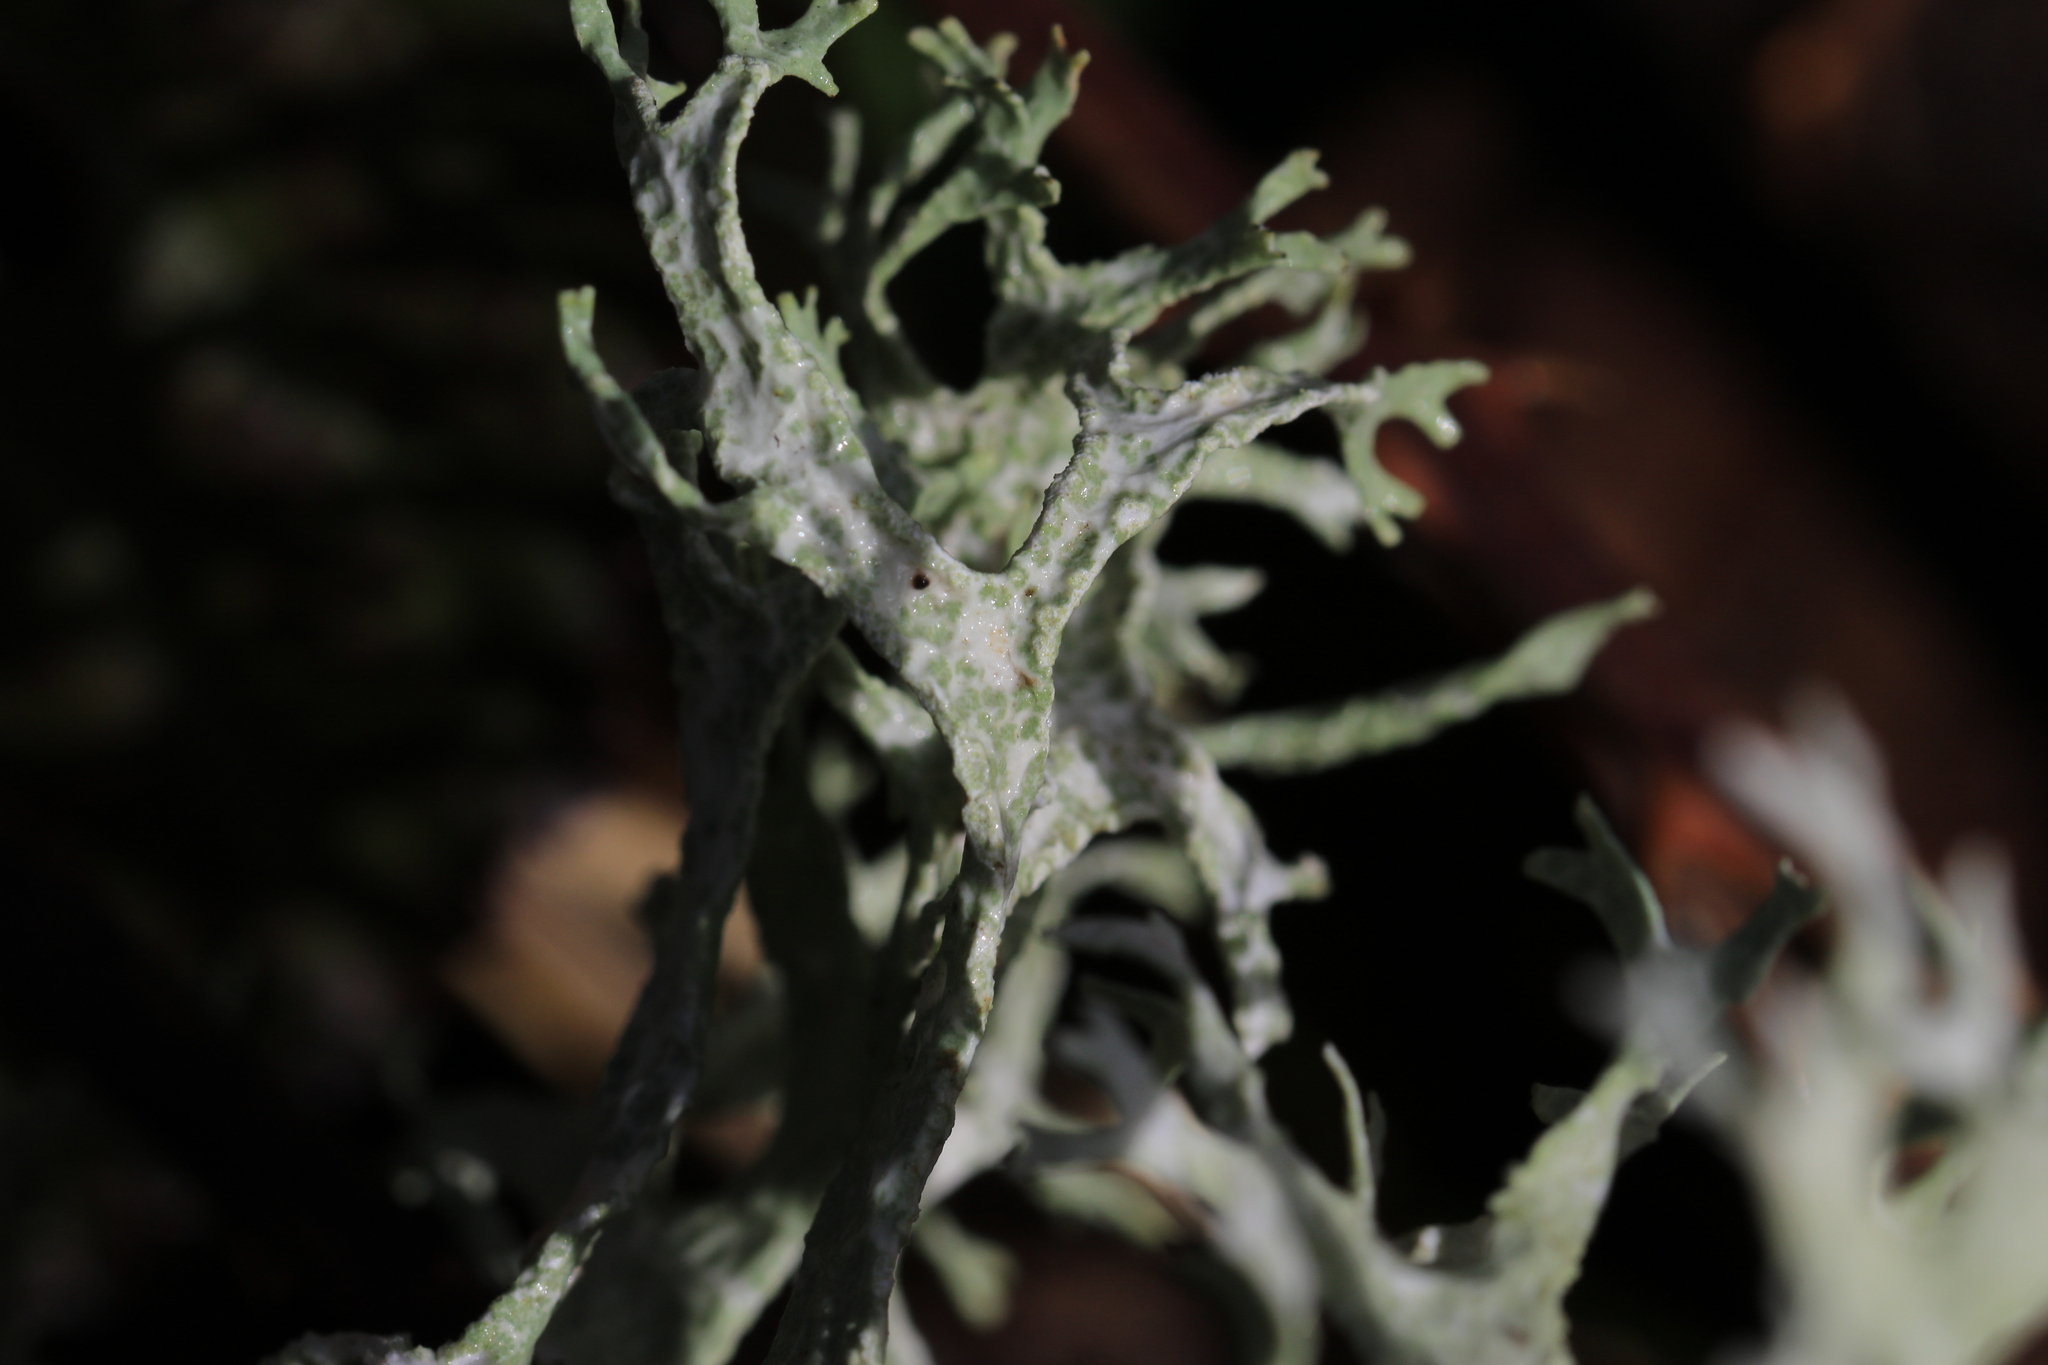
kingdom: Fungi
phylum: Ascomycota
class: Lecanoromycetes
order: Lecanorales
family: Parmeliaceae
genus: Evernia
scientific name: Evernia prunastri
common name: Oak moss
